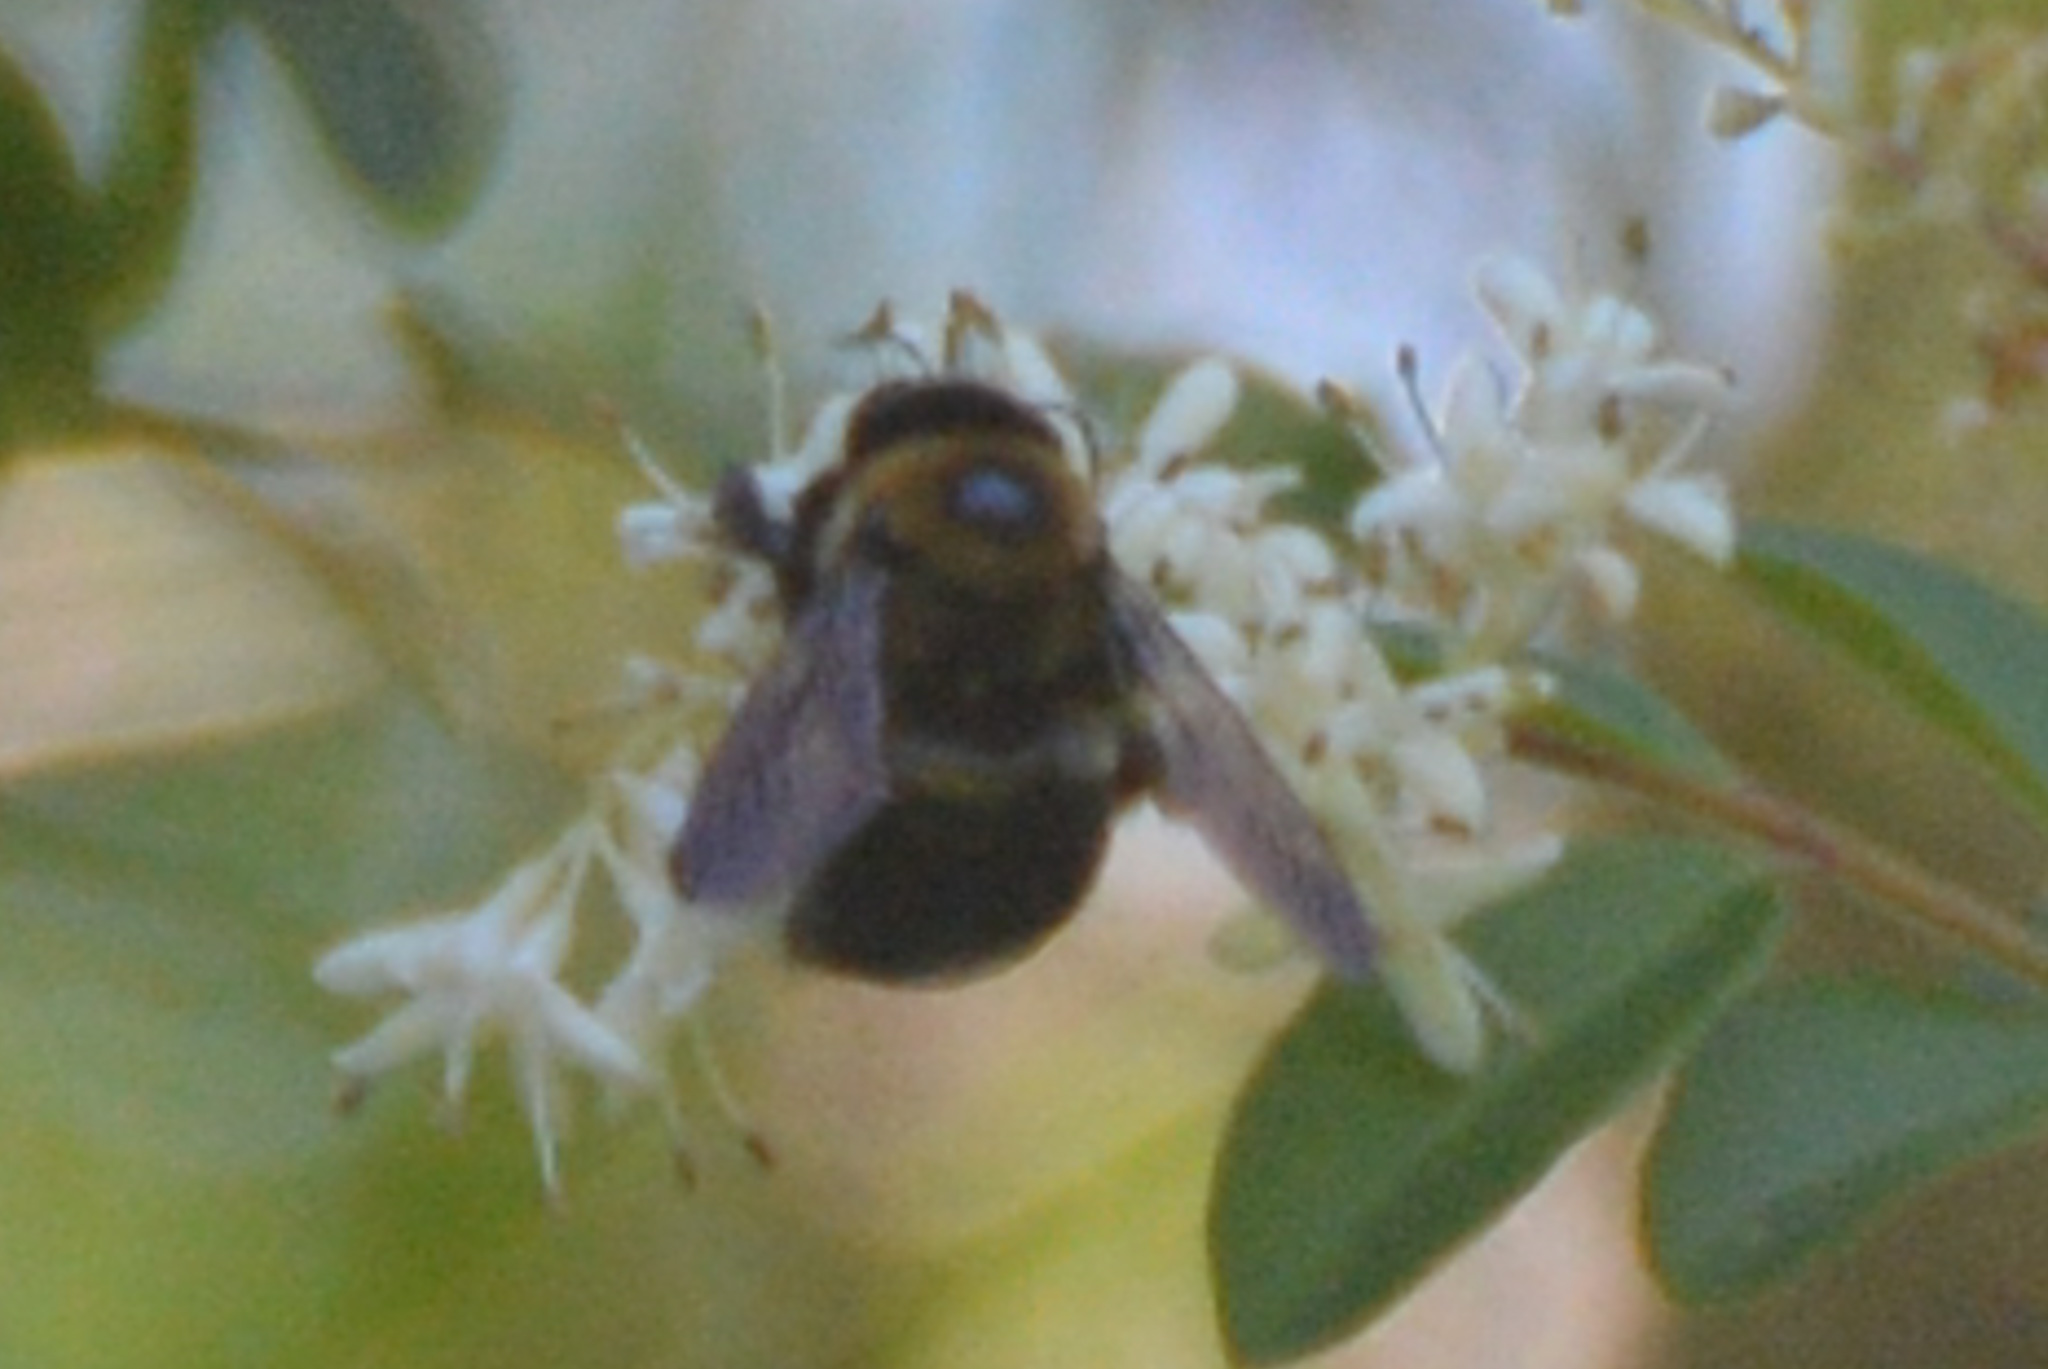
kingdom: Animalia
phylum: Arthropoda
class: Insecta
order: Hymenoptera
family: Apidae
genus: Xylocopa
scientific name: Xylocopa virginica
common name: Carpenter bee
